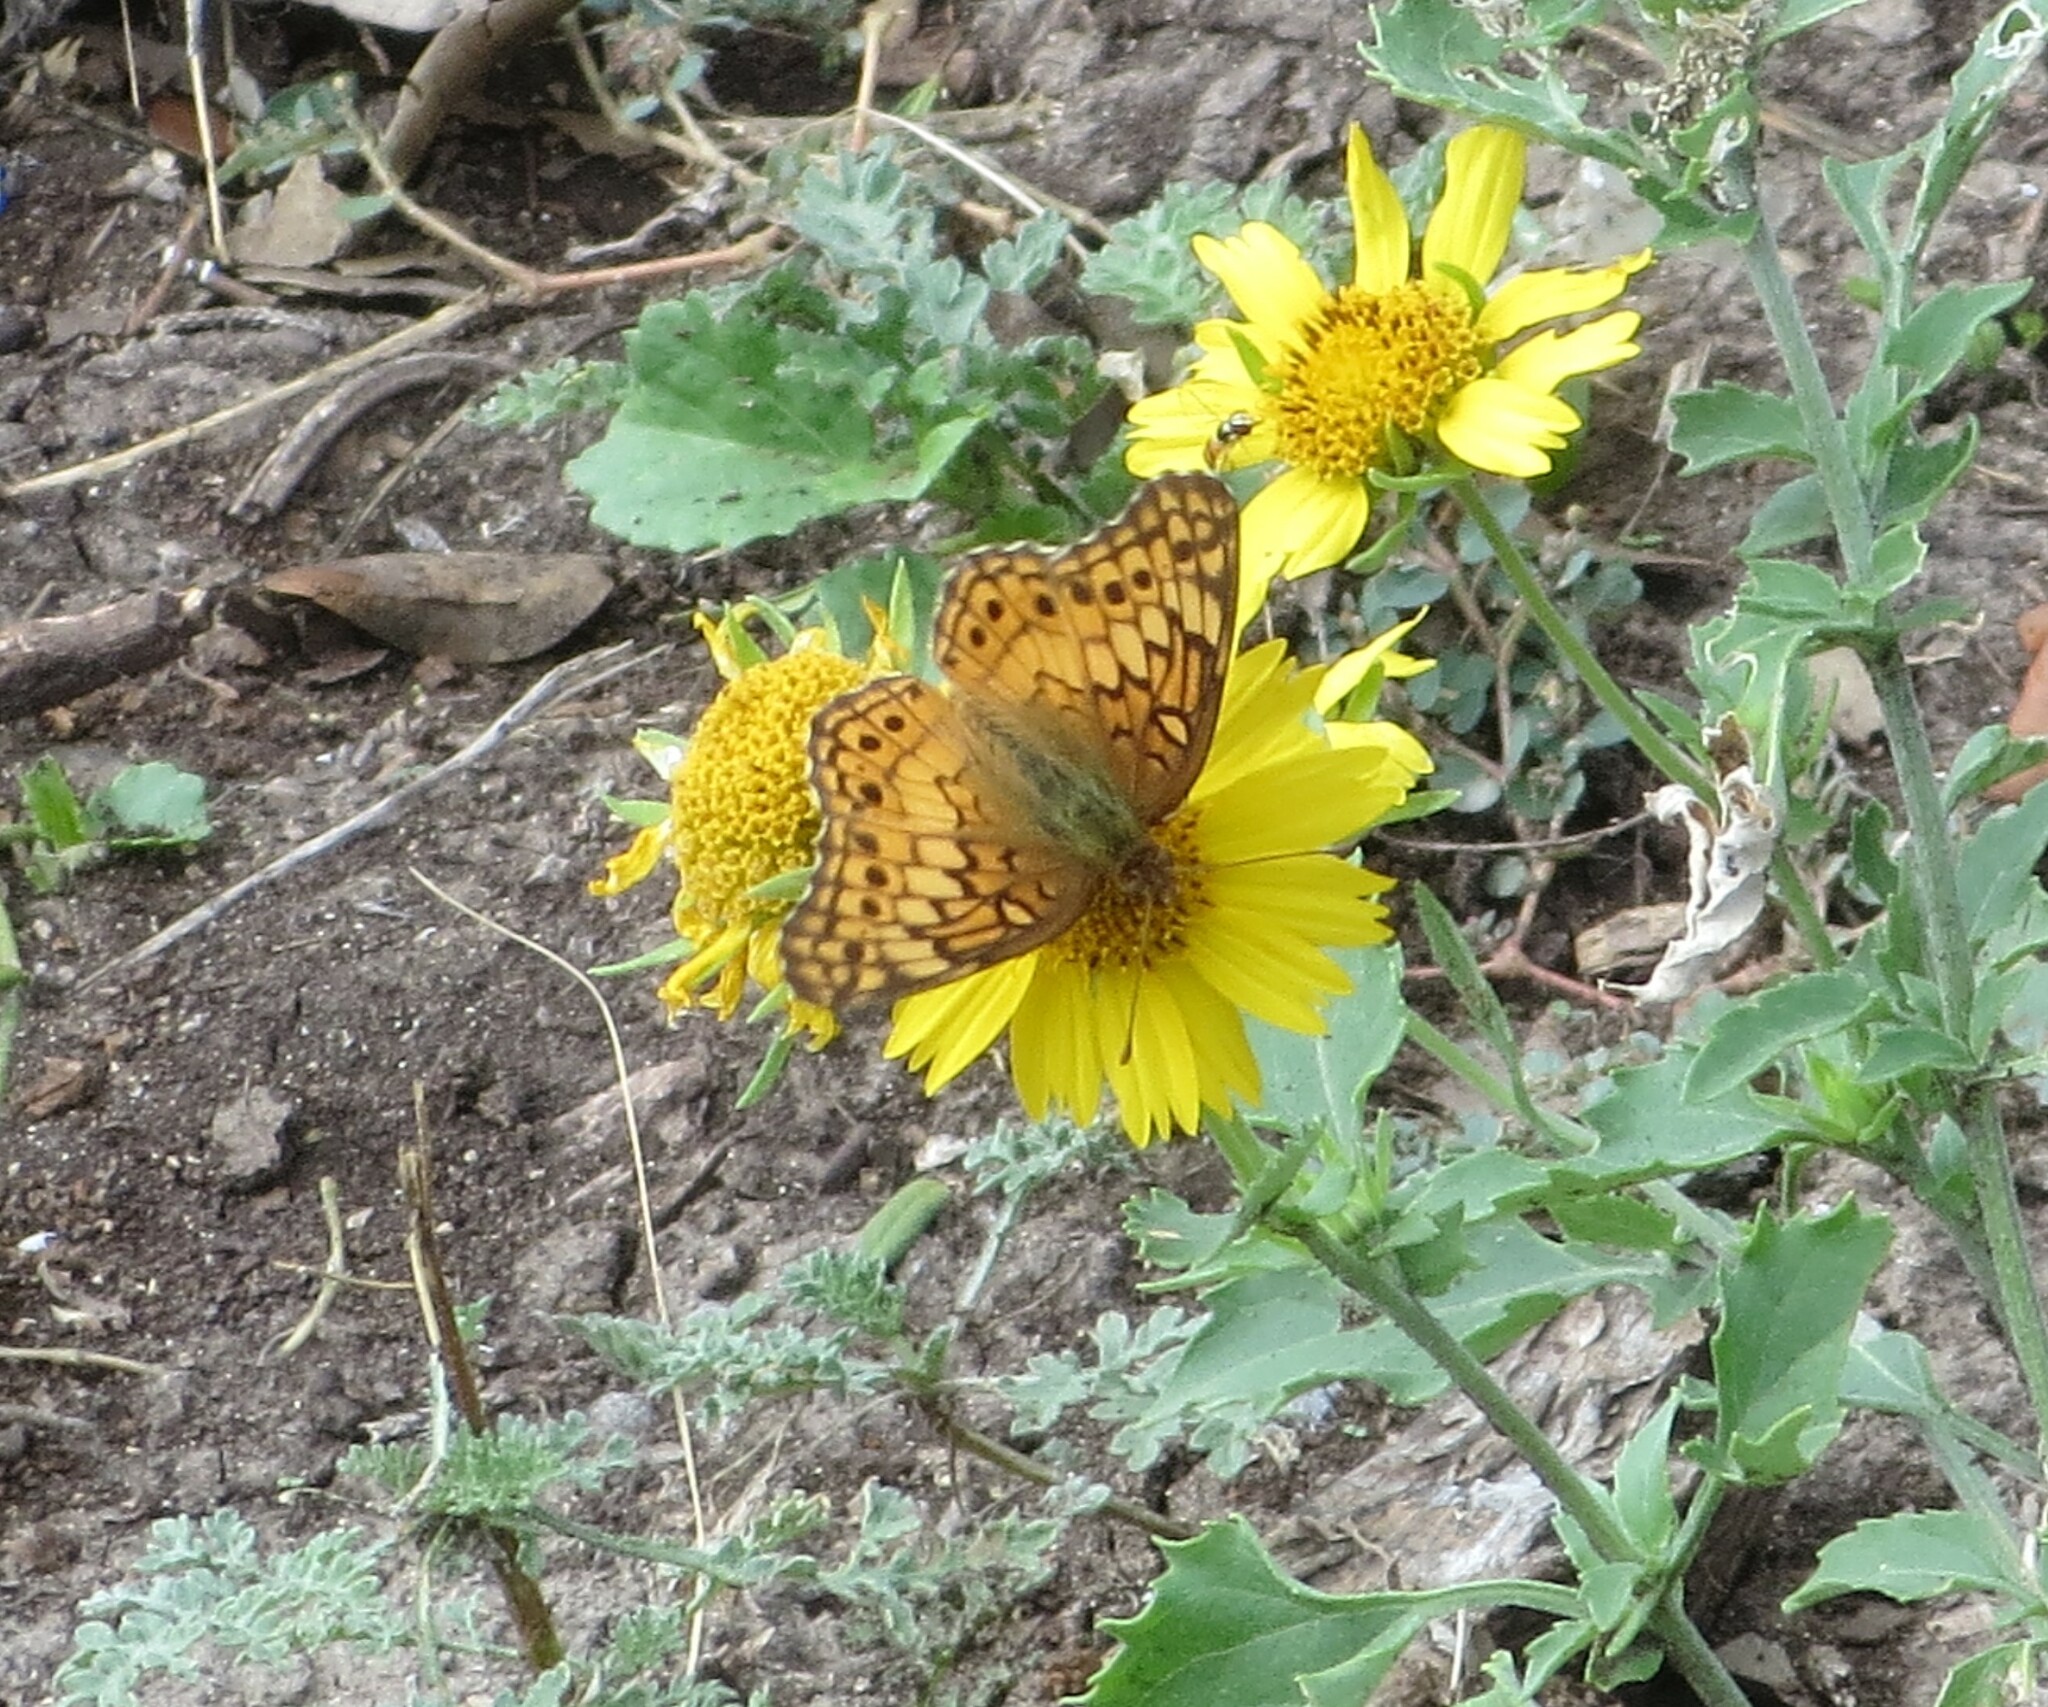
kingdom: Animalia
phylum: Arthropoda
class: Insecta
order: Lepidoptera
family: Nymphalidae
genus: Euptoieta
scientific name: Euptoieta claudia
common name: Variegated fritillary
